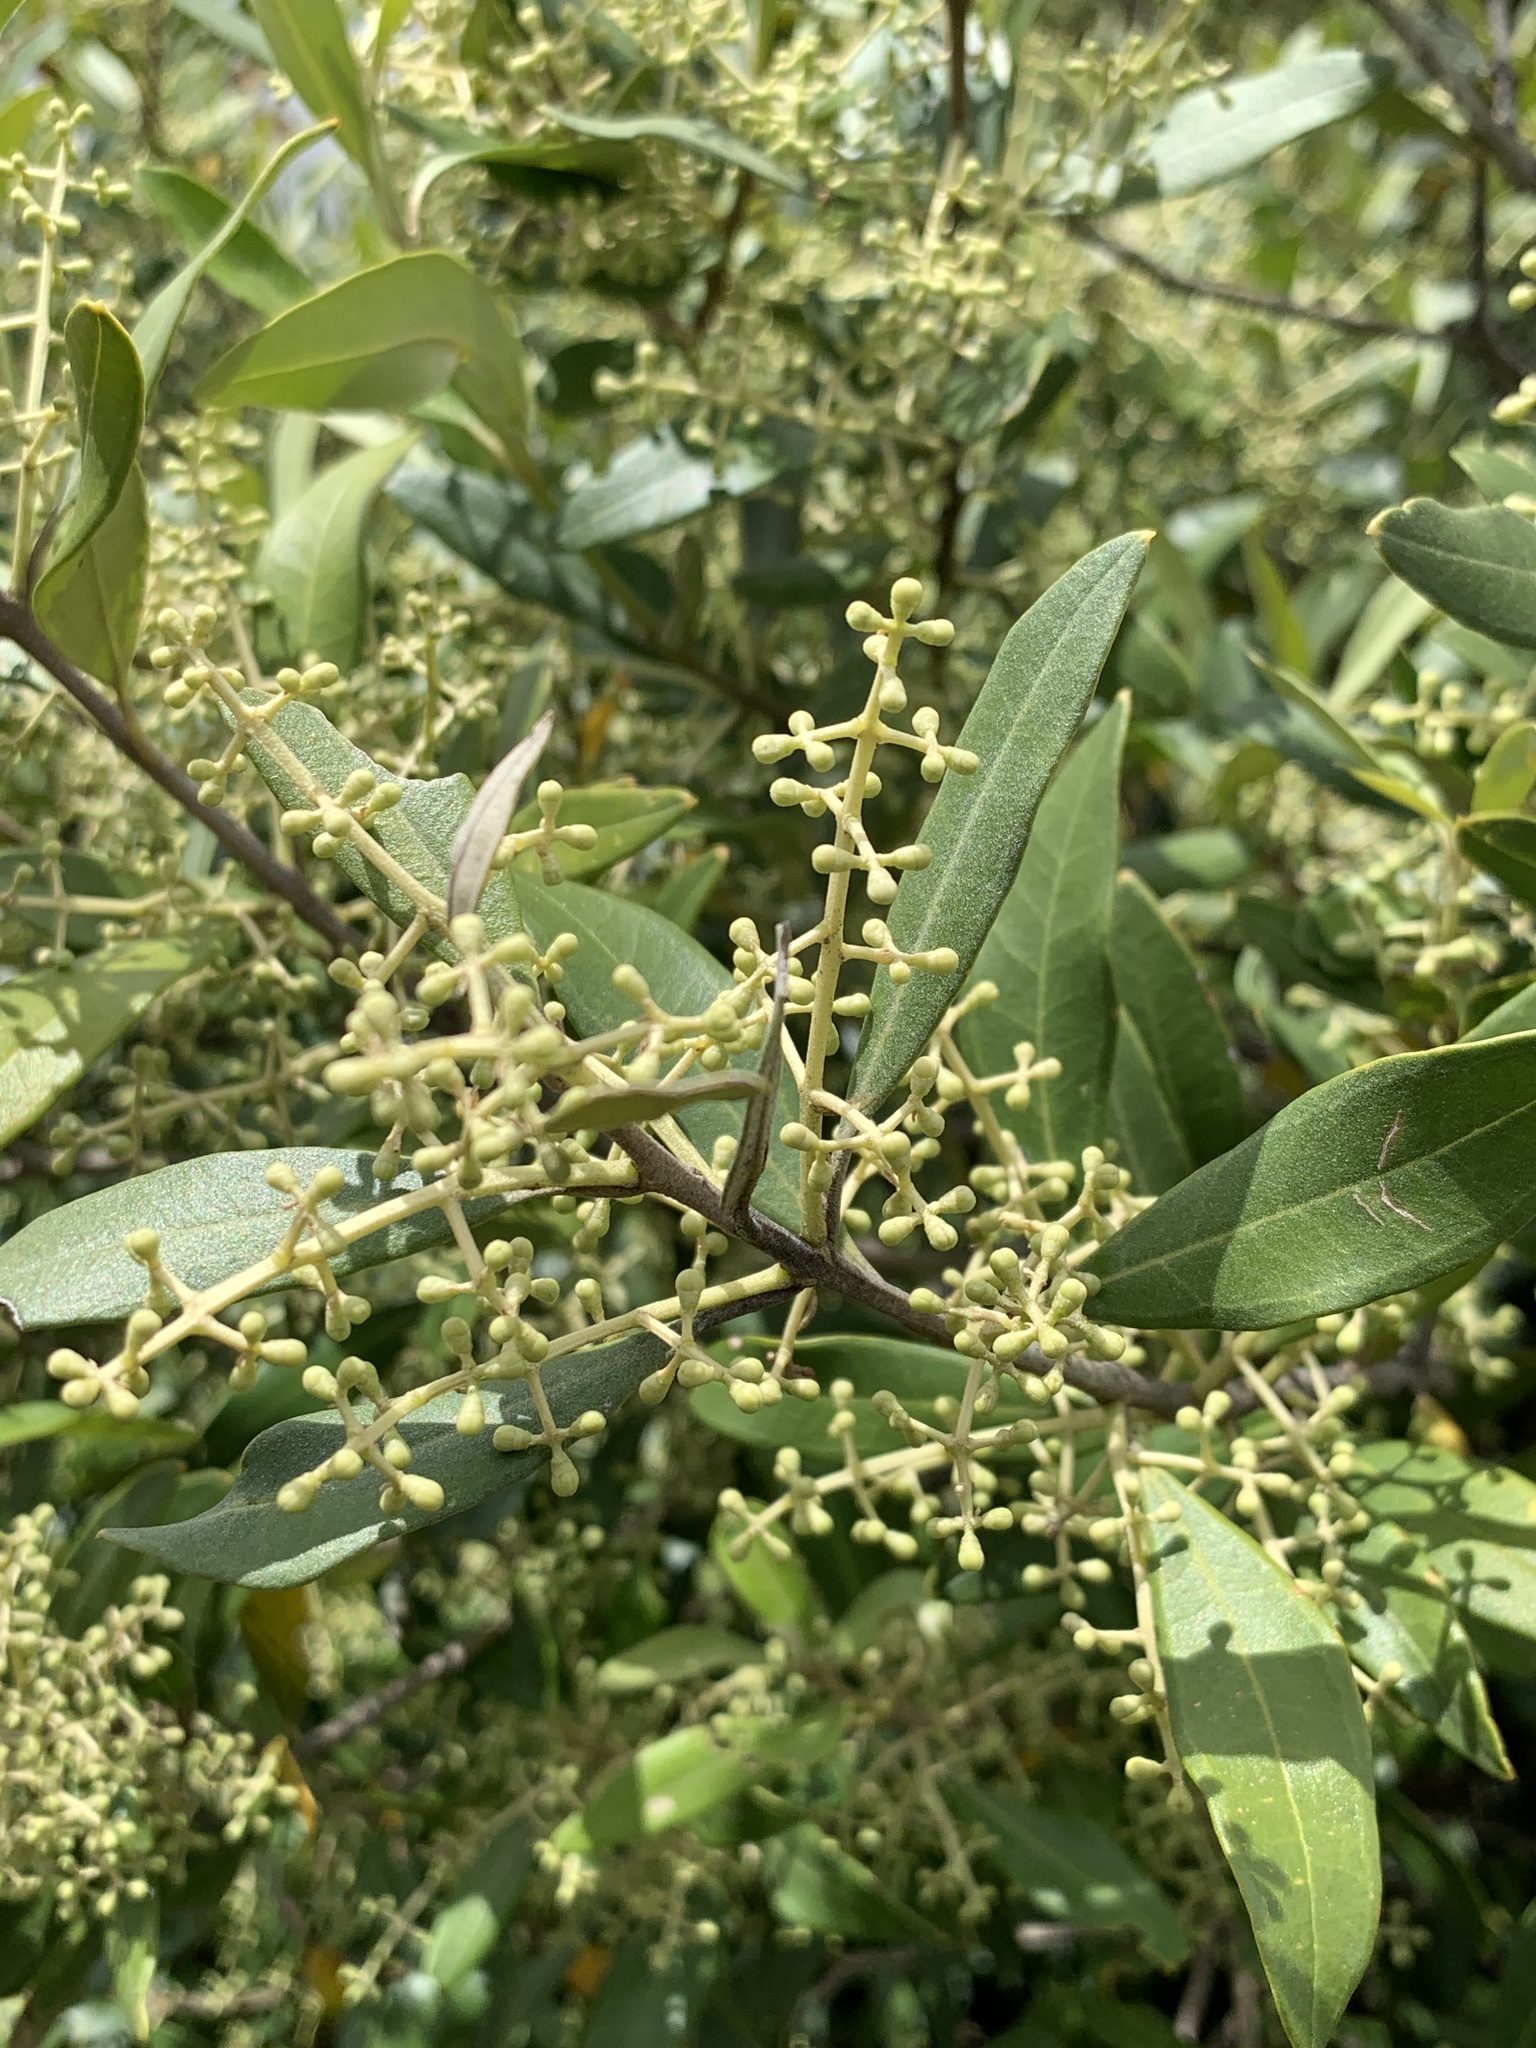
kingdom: Plantae
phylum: Tracheophyta
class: Magnoliopsida
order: Lamiales
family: Oleaceae
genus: Olea
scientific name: Olea europaea
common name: Olive
